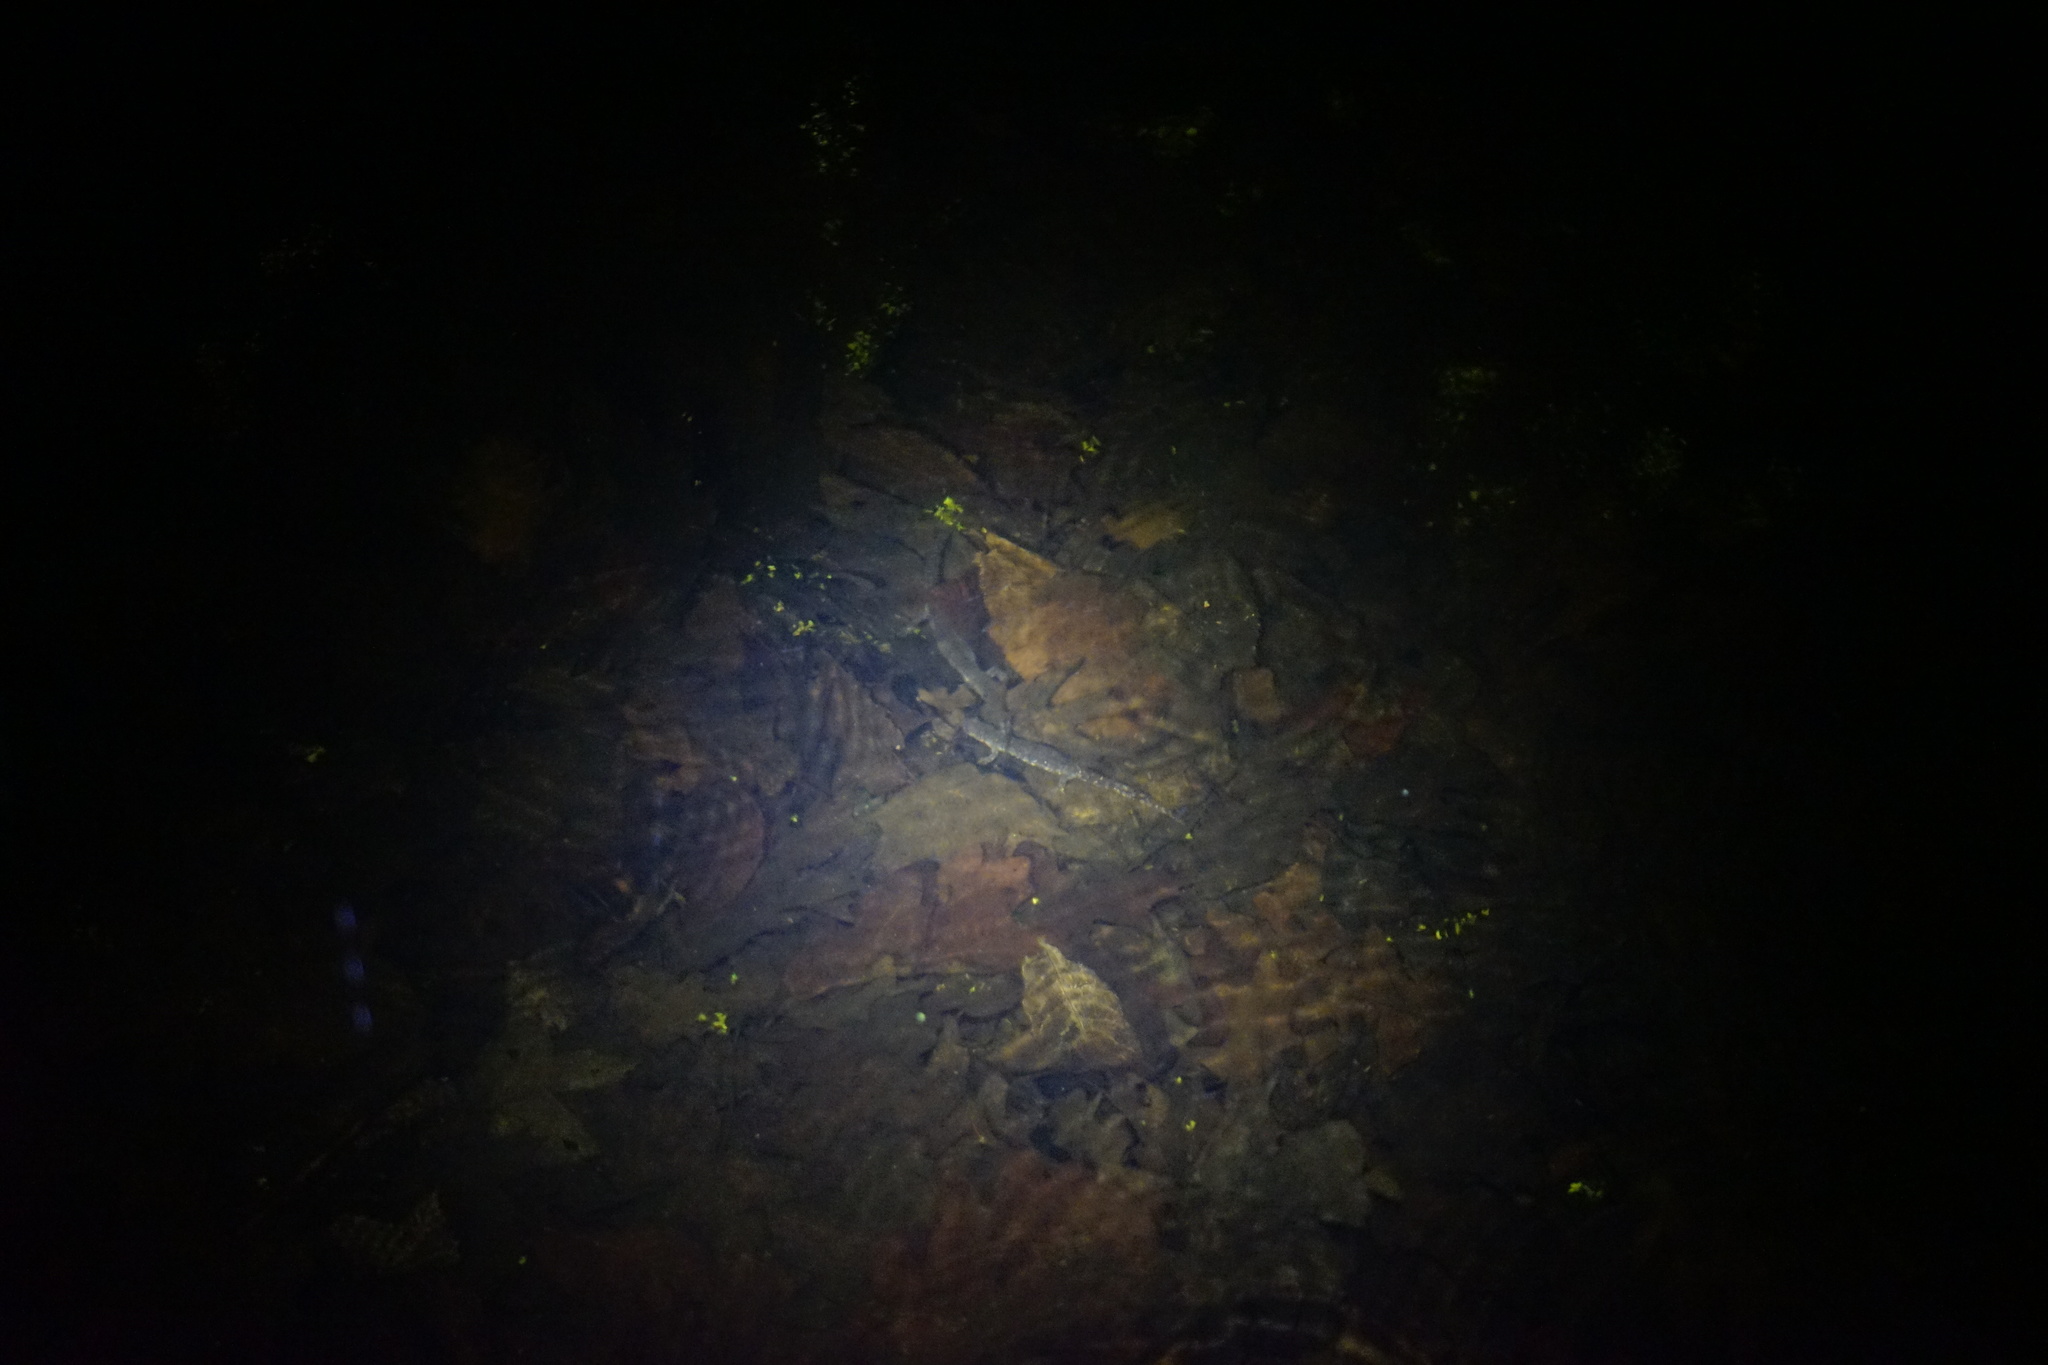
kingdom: Animalia
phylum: Chordata
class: Amphibia
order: Caudata
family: Ambystomatidae
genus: Ambystoma
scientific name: Ambystoma laterale
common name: Blue-spotted salamander
